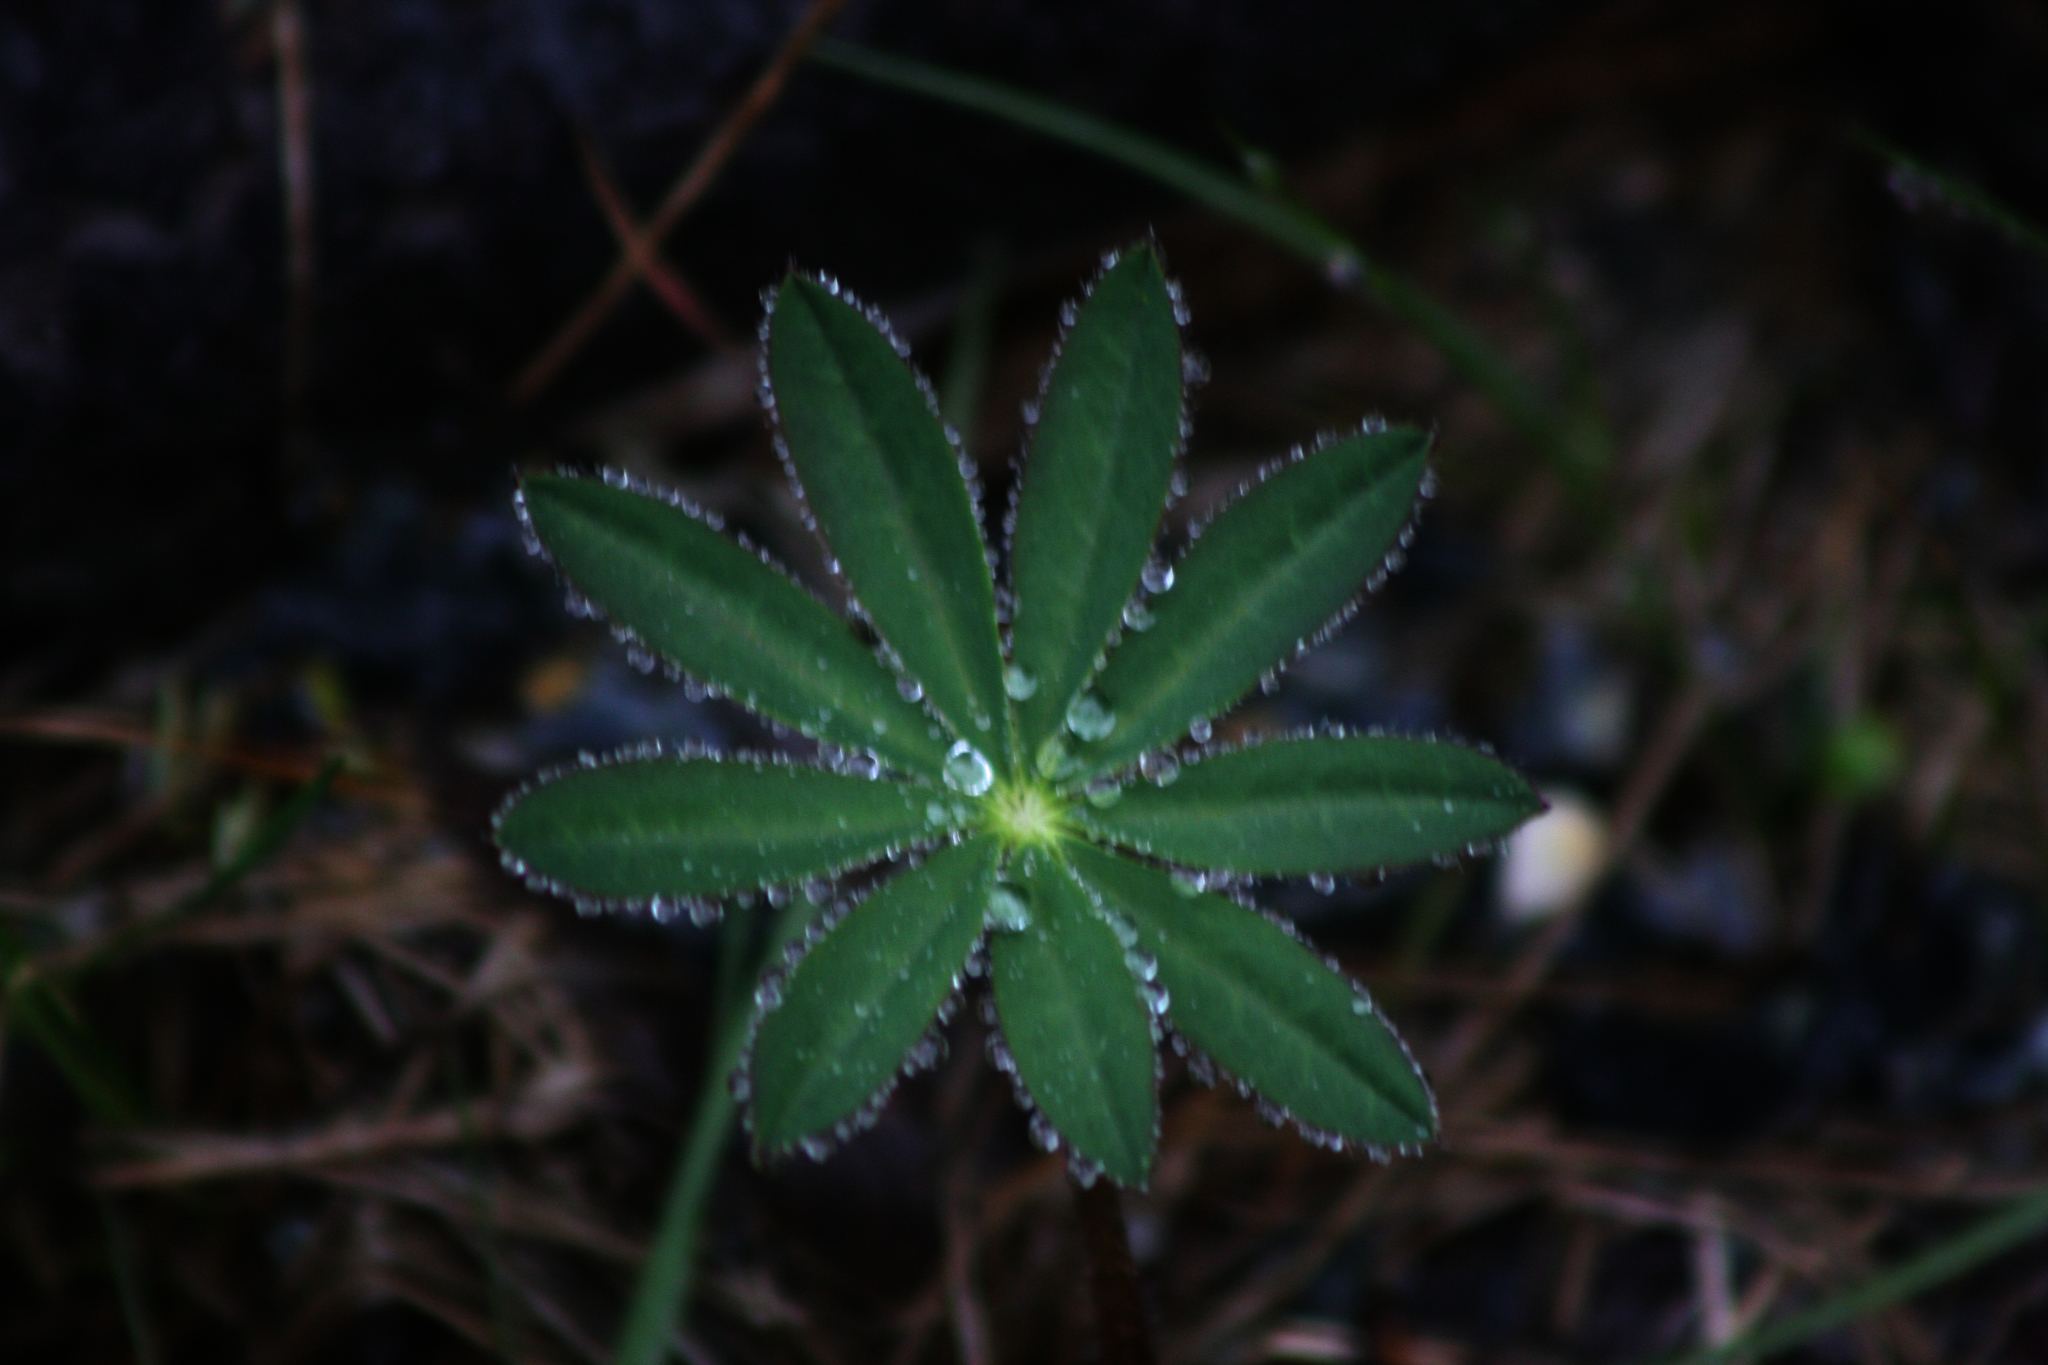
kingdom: Plantae
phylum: Tracheophyta
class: Magnoliopsida
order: Fabales
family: Fabaceae
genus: Lupinus
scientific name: Lupinus polyphyllus
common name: Garden lupin
